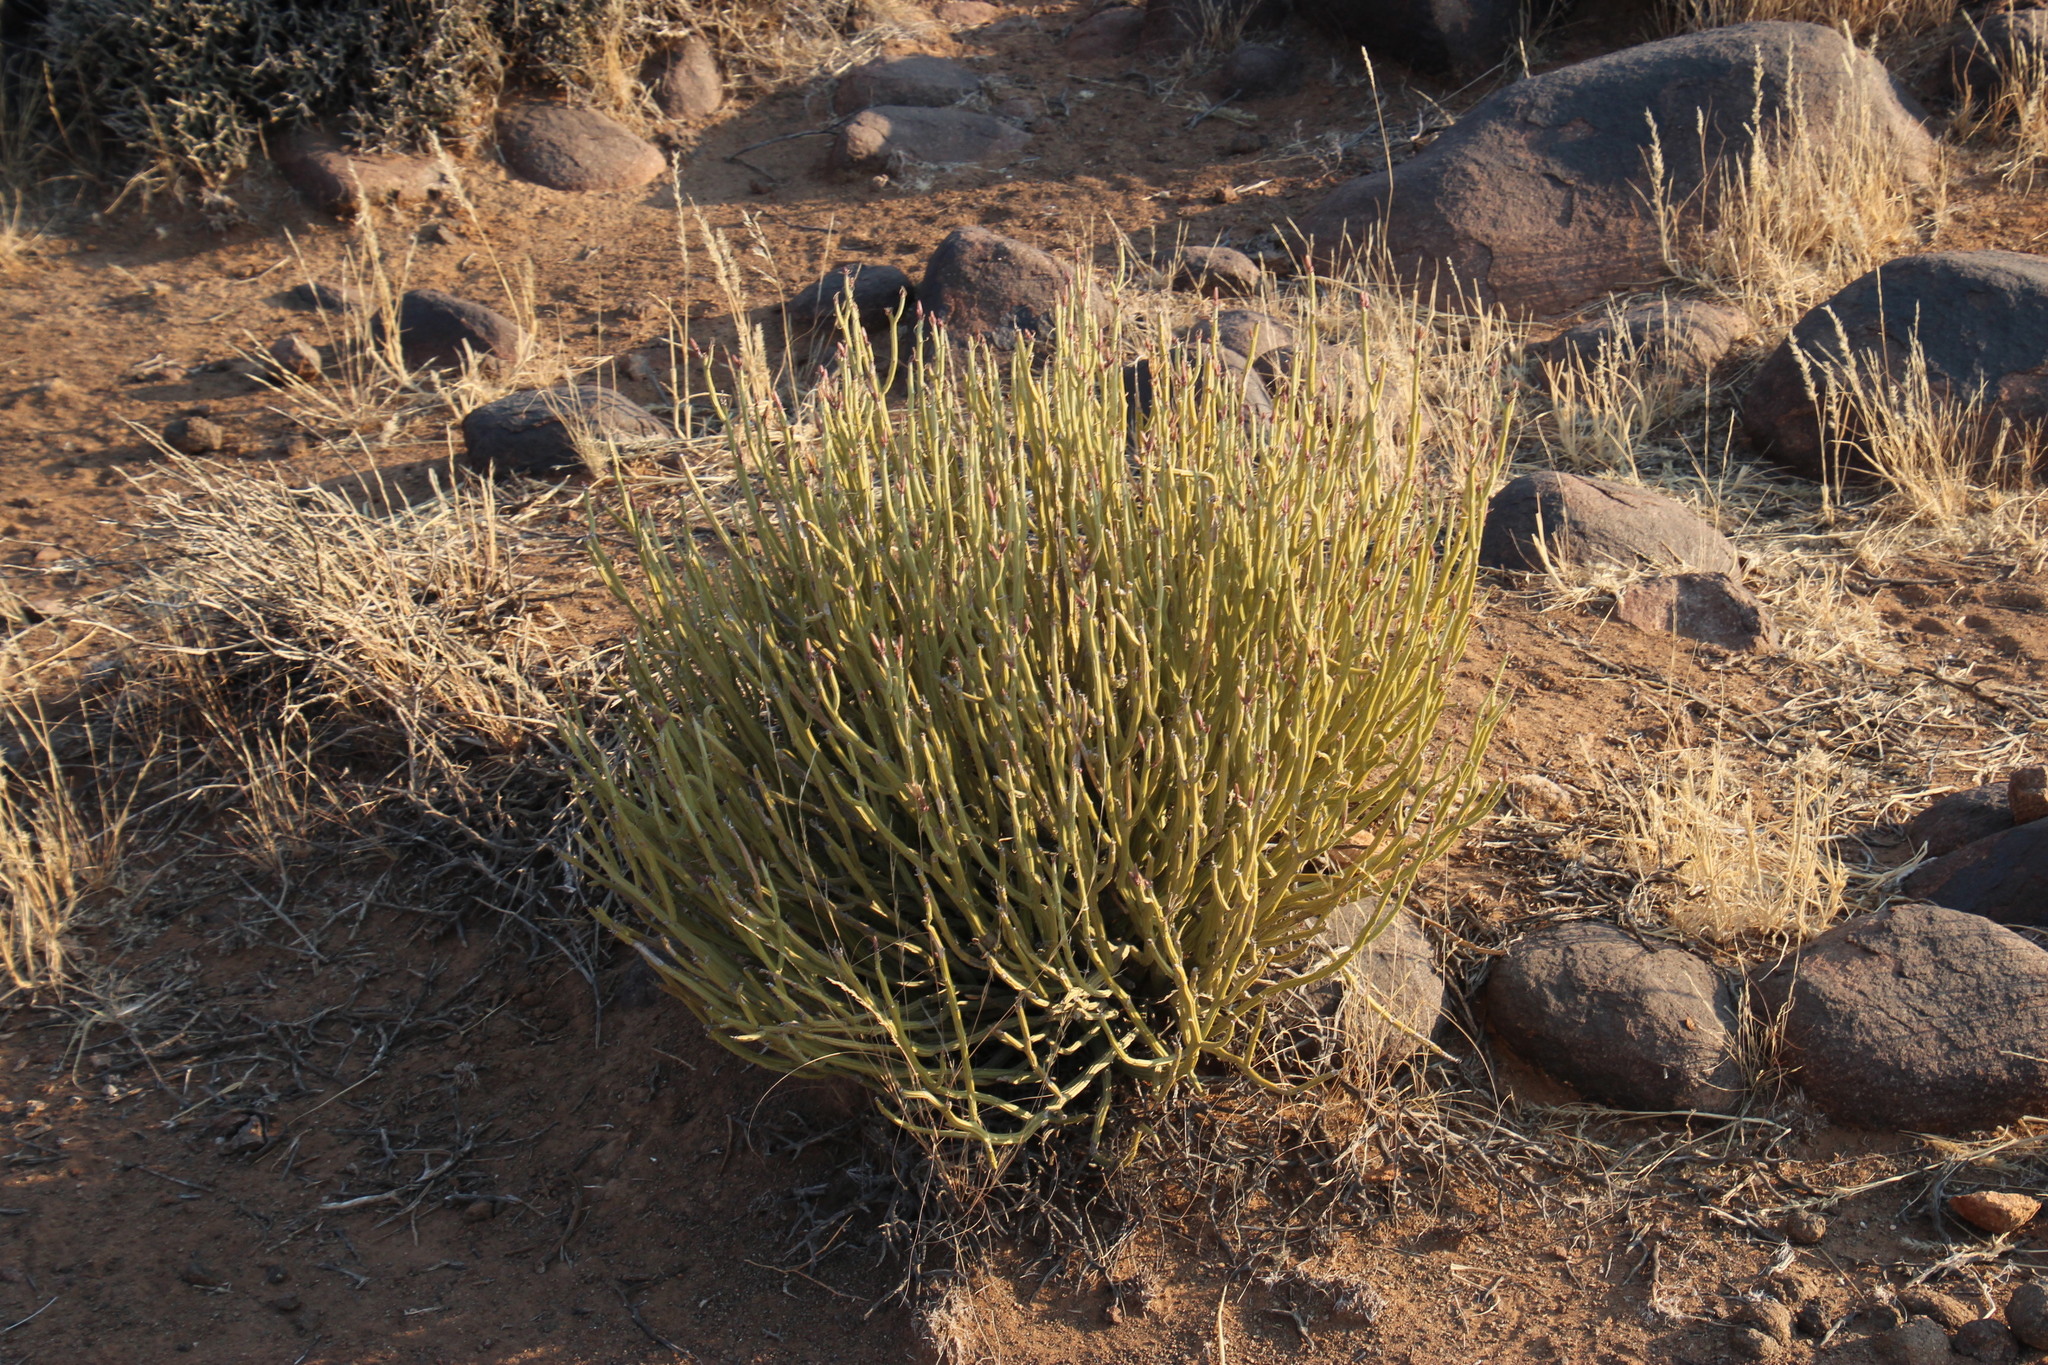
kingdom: Plantae
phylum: Tracheophyta
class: Magnoliopsida
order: Asterales
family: Asteraceae
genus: Curio
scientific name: Curio avasimontanus
